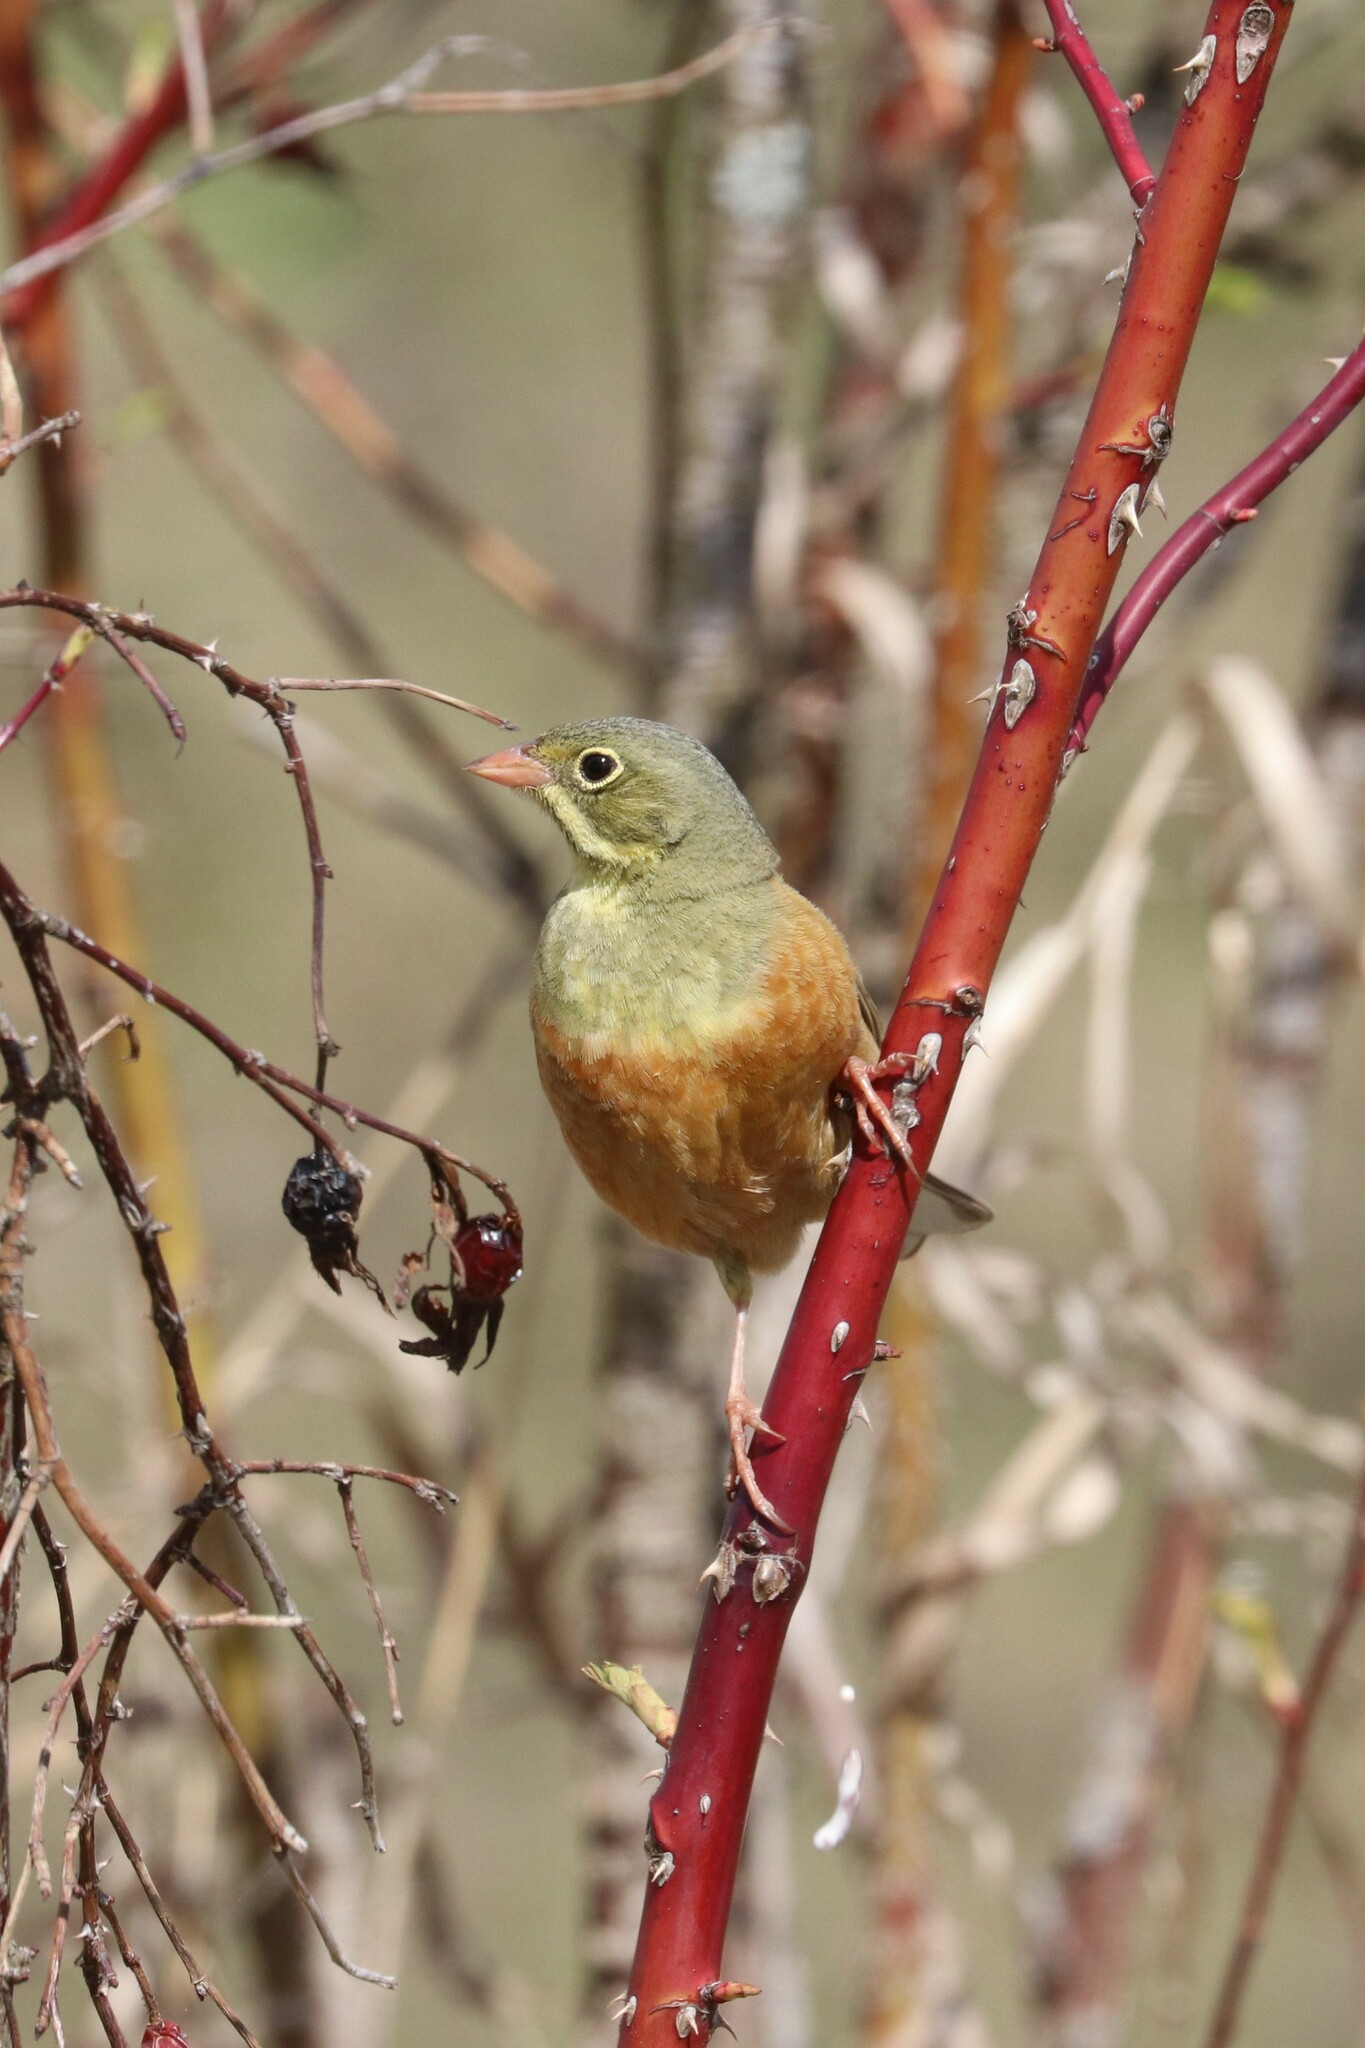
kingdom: Animalia
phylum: Chordata
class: Aves
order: Passeriformes
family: Emberizidae
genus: Emberiza
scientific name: Emberiza hortulana
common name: Ortolan bunting
